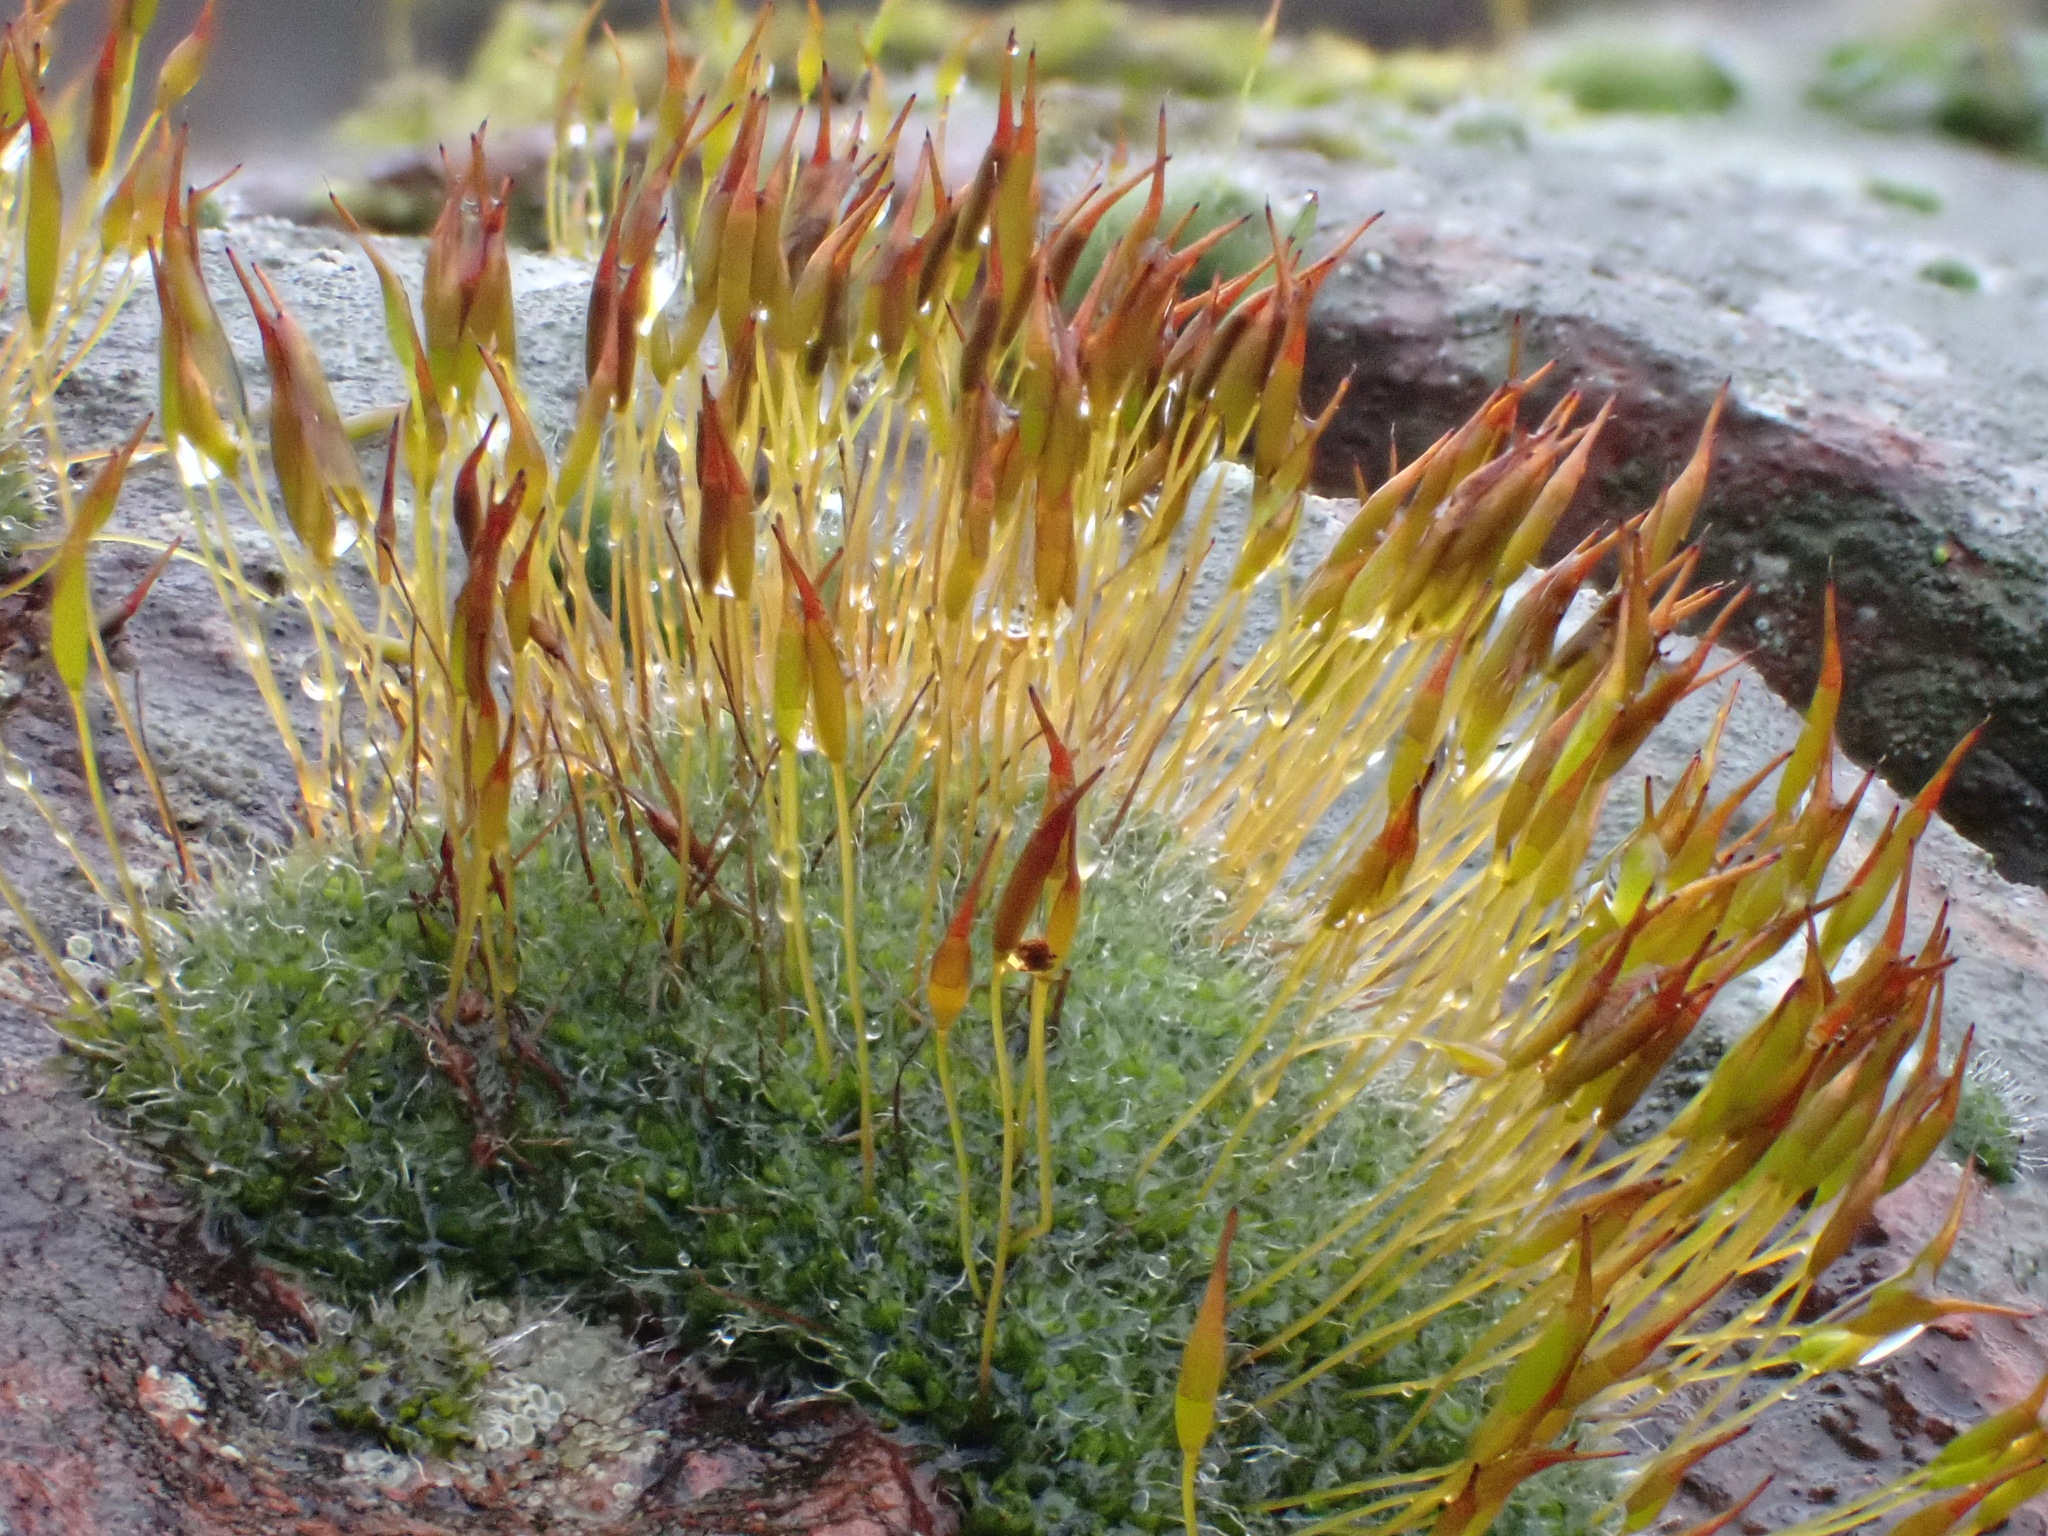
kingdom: Plantae
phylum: Bryophyta
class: Bryopsida
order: Pottiales
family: Pottiaceae
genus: Tortula
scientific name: Tortula muralis
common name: Wall screw-moss
